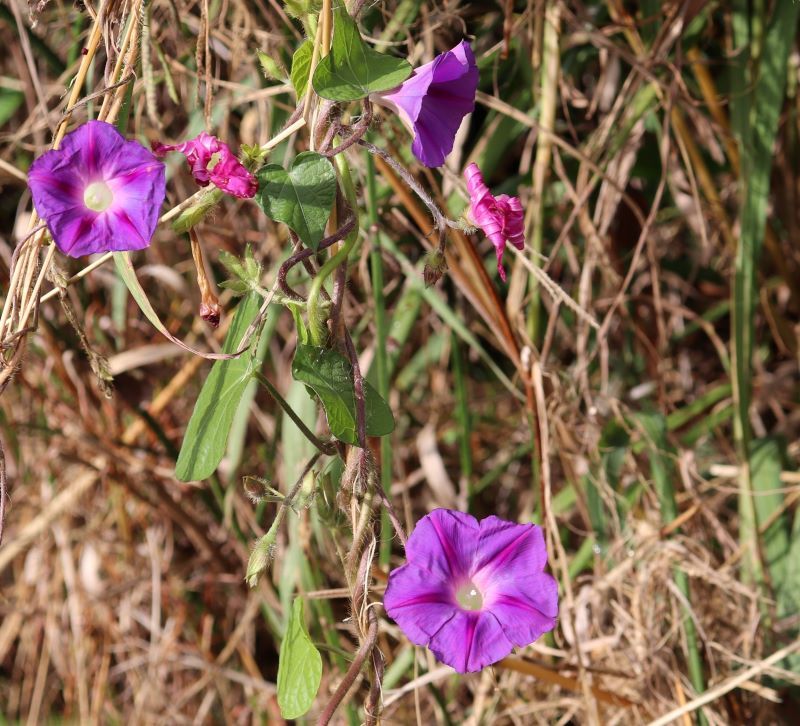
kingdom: Plantae
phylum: Tracheophyta
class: Magnoliopsida
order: Solanales
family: Convolvulaceae
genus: Ipomoea
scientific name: Ipomoea purpurea
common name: Common morning-glory
